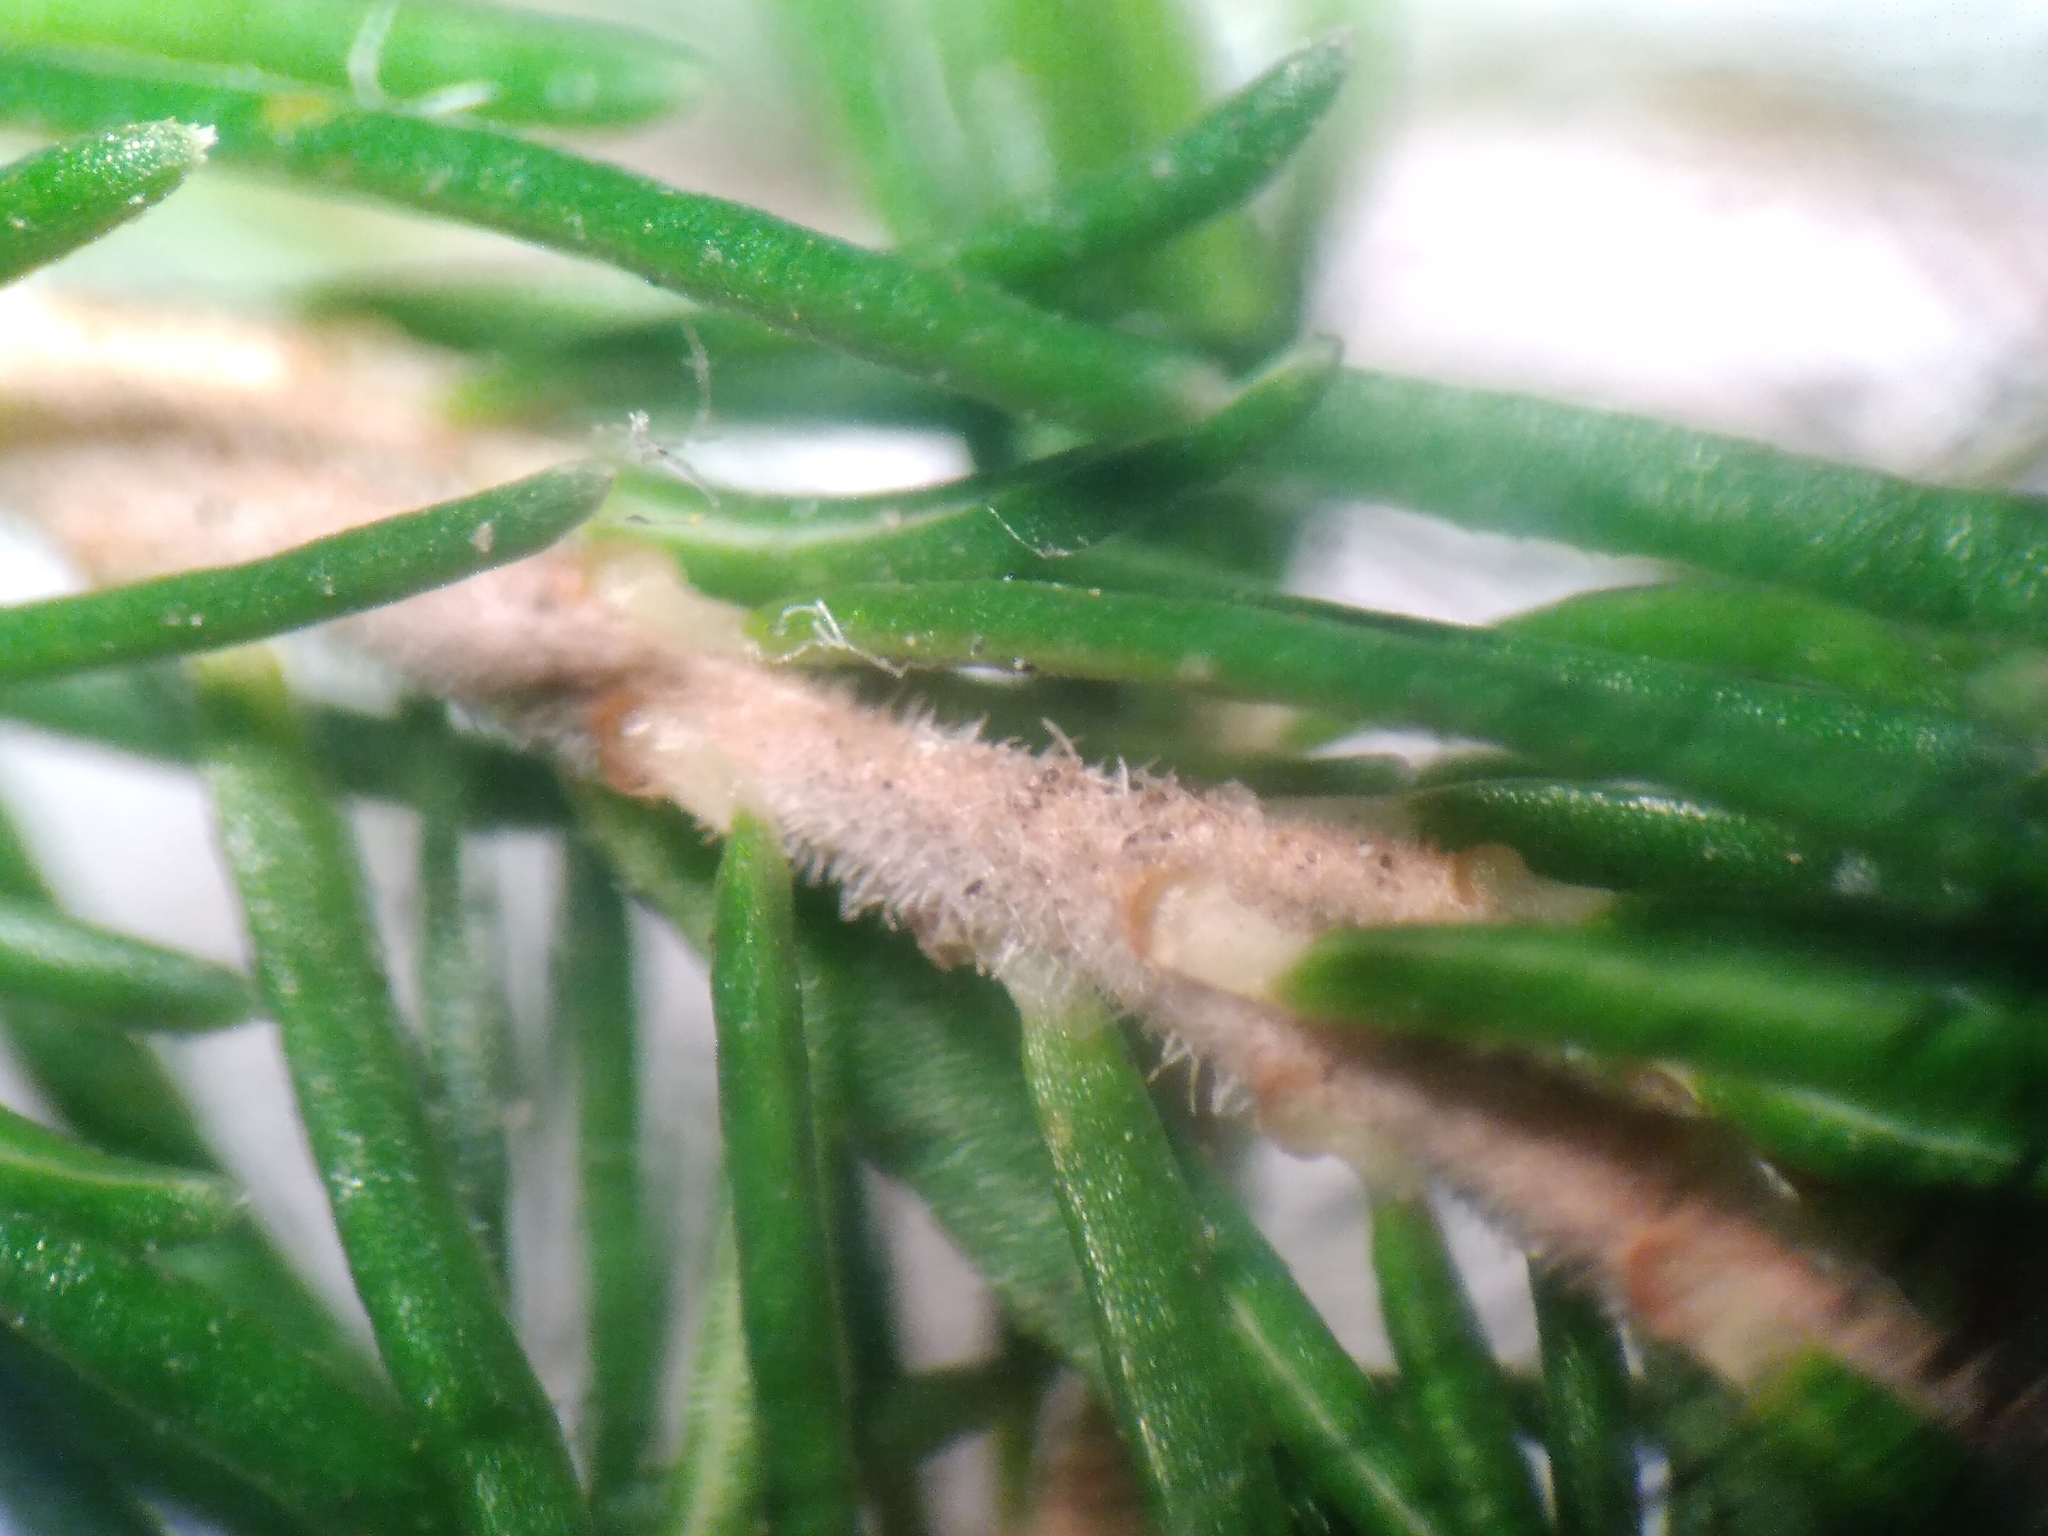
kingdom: Plantae
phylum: Tracheophyta
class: Magnoliopsida
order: Ericales
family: Ericaceae
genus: Erica
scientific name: Erica lusitanica
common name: Spanish heath
